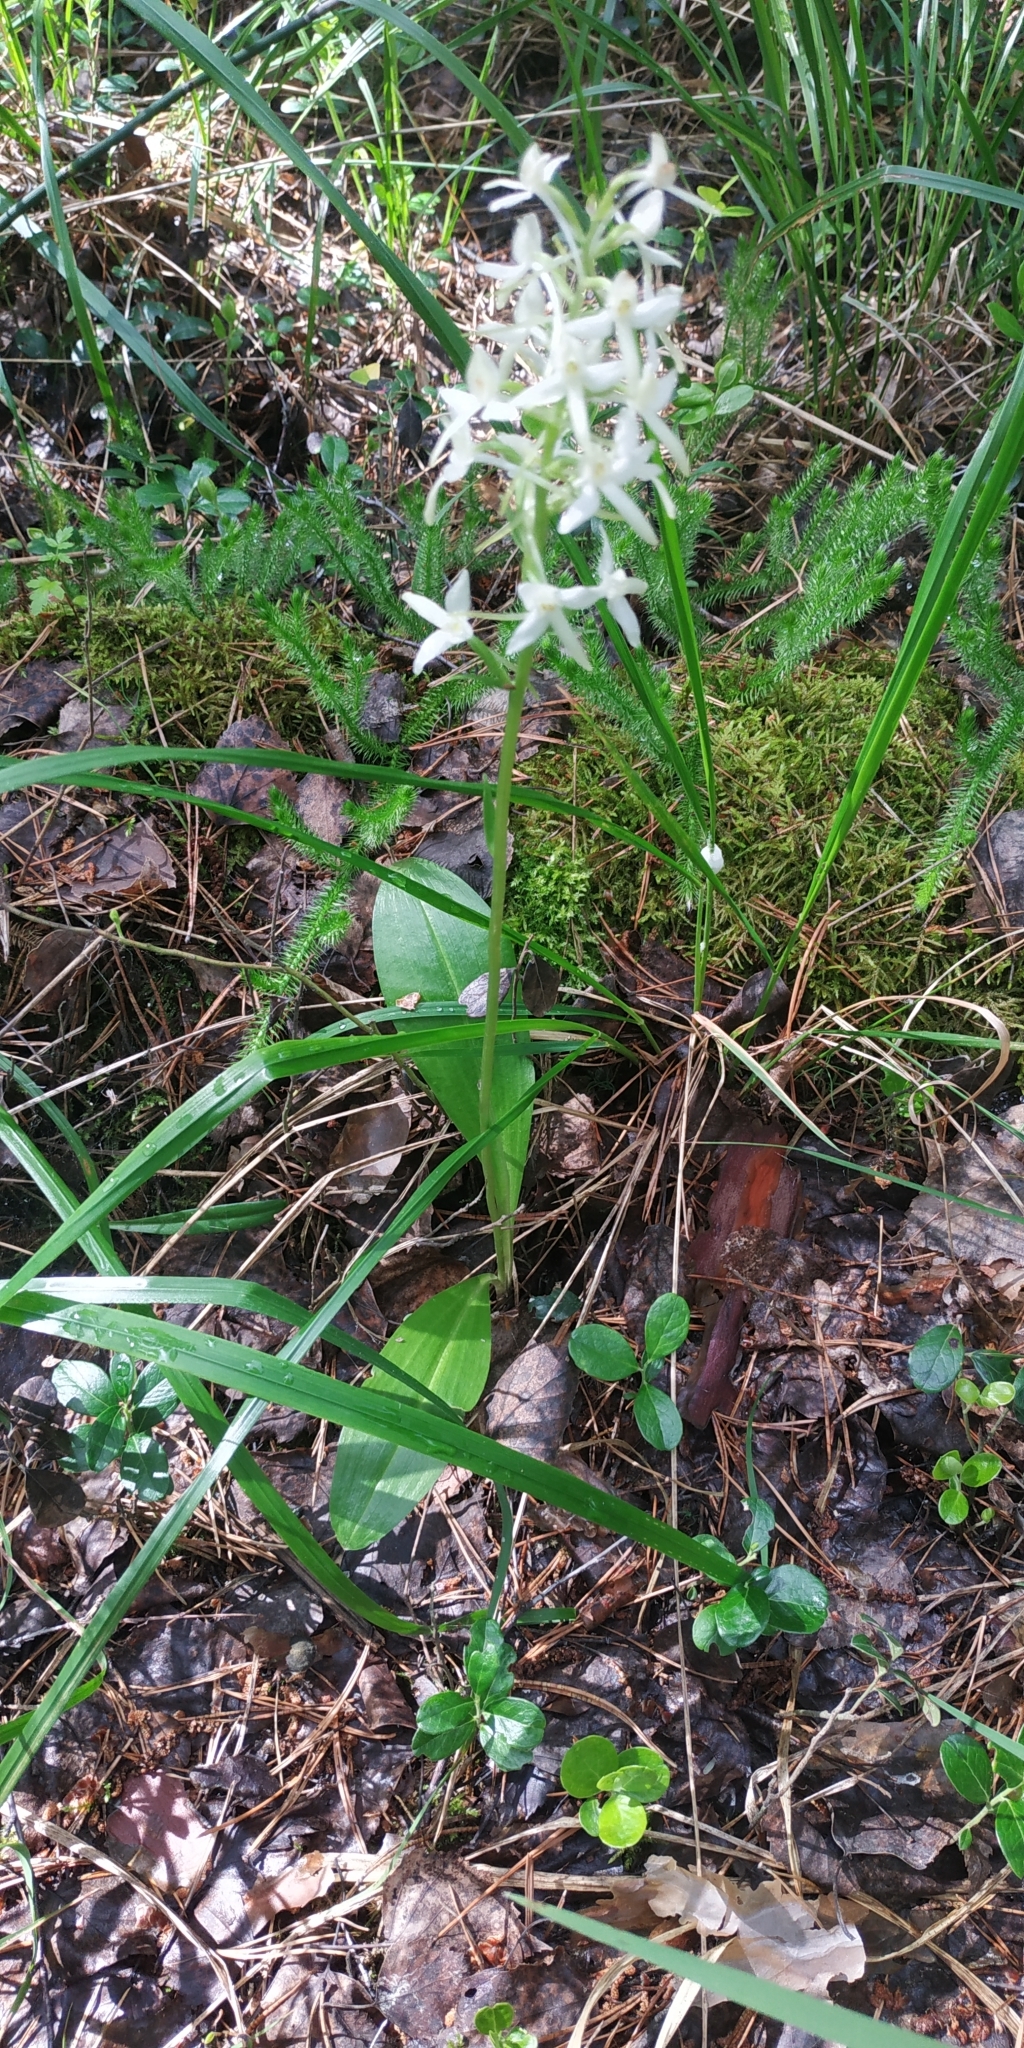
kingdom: Plantae
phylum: Tracheophyta
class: Liliopsida
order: Asparagales
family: Orchidaceae
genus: Platanthera
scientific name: Platanthera bifolia
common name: Lesser butterfly-orchid
